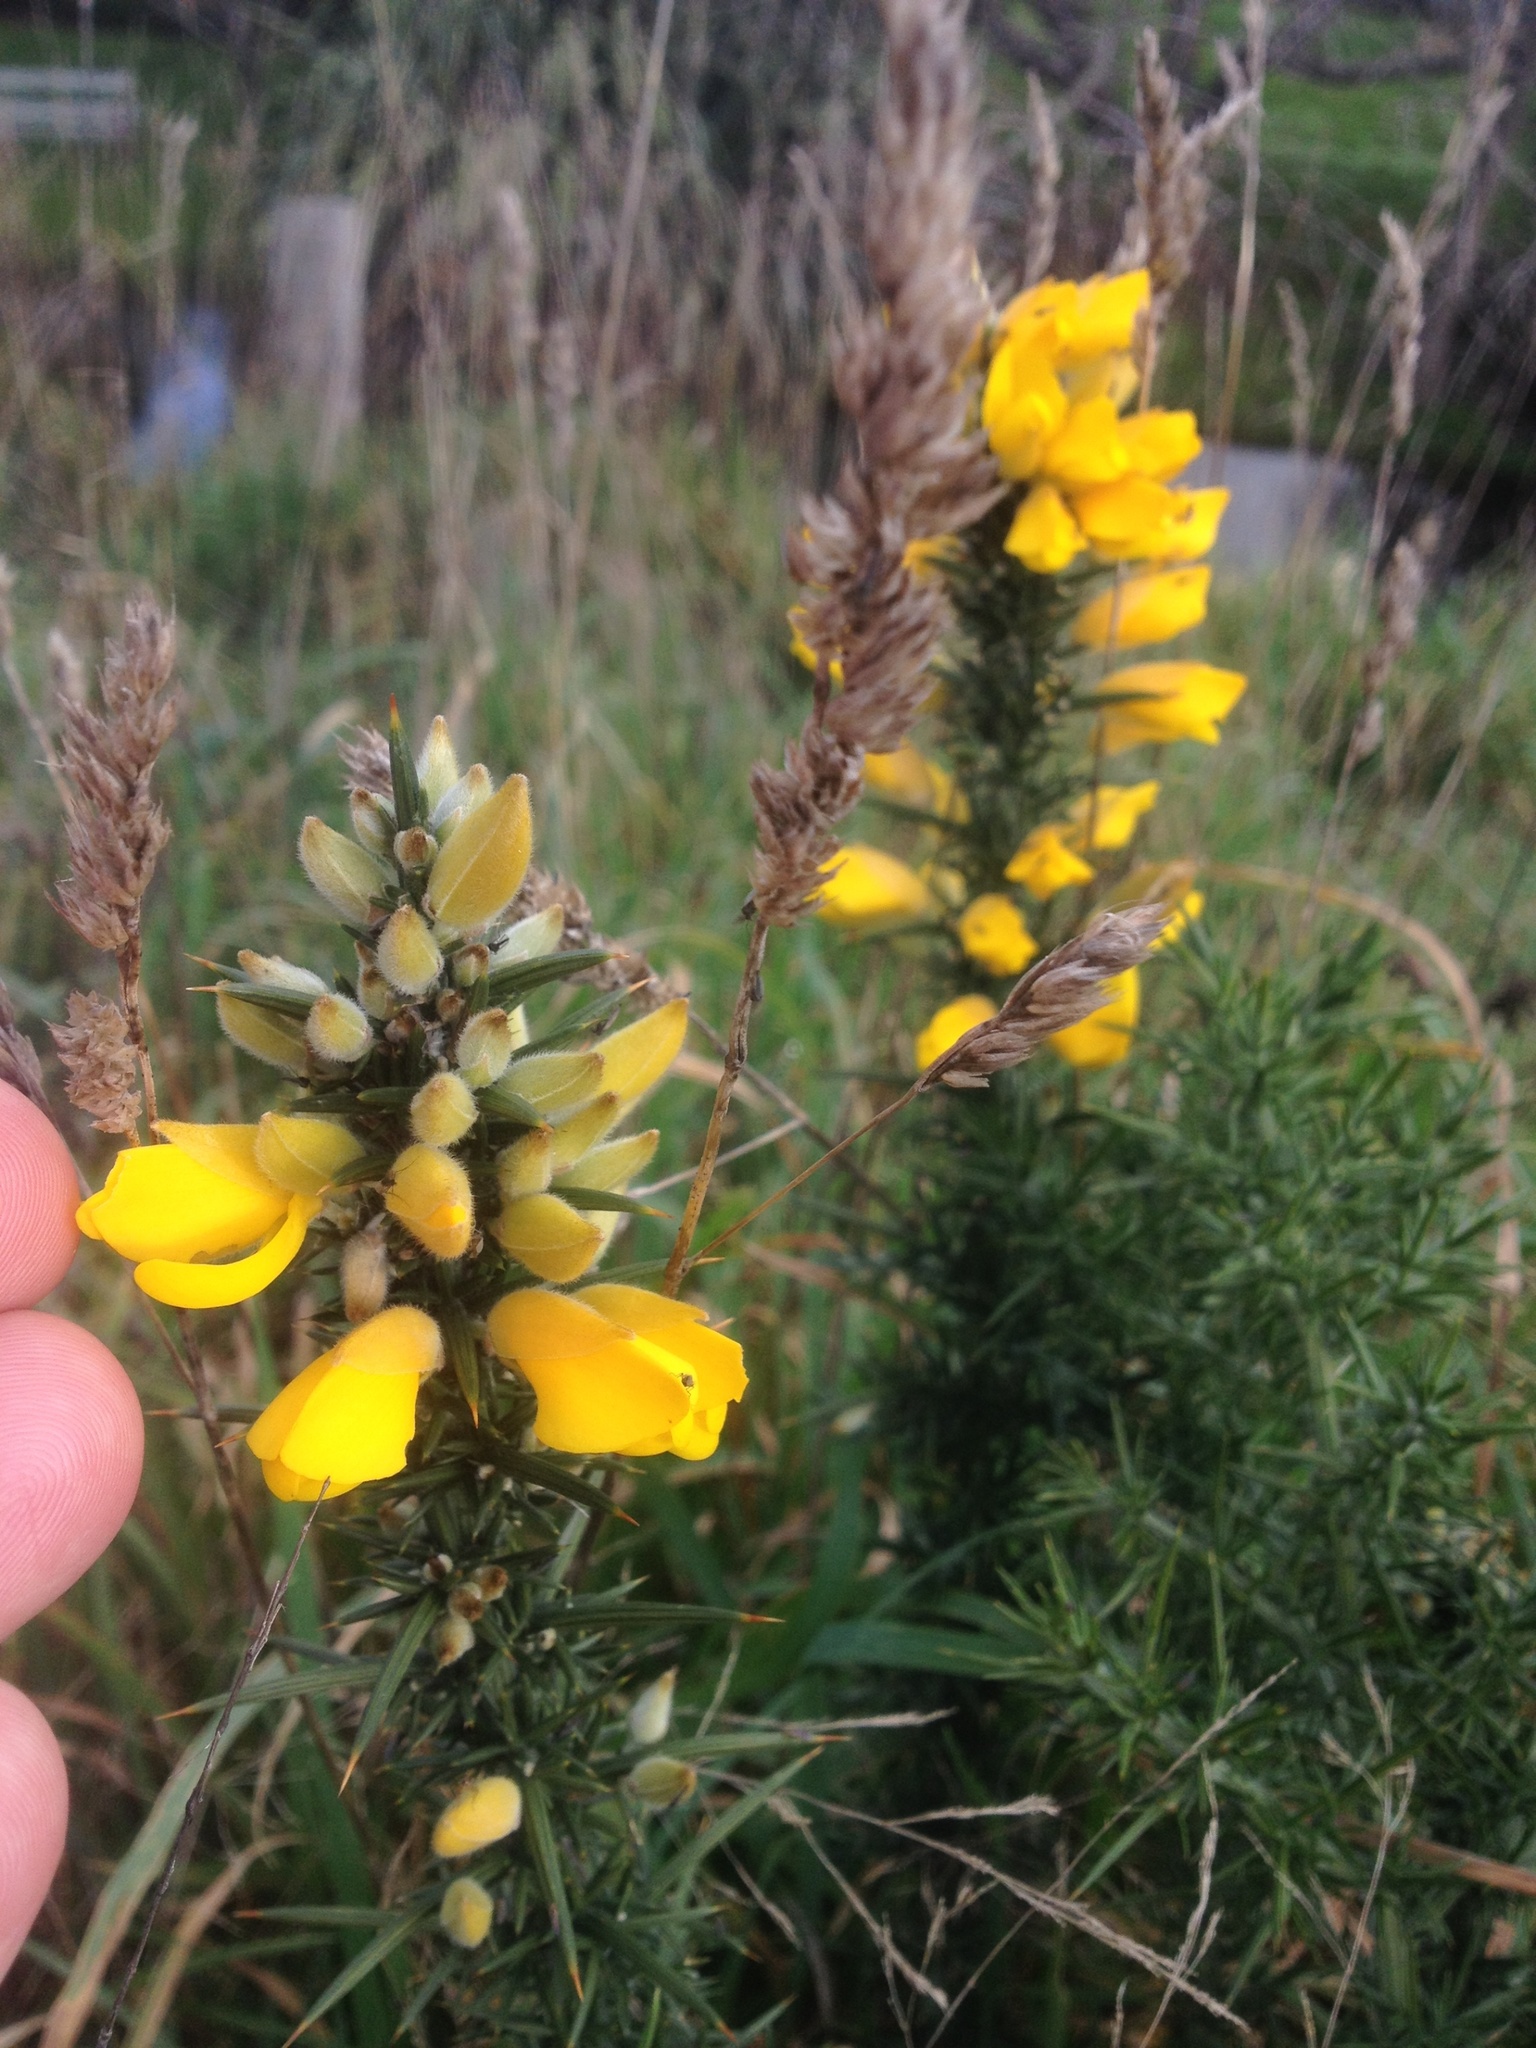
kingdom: Plantae
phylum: Tracheophyta
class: Magnoliopsida
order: Fabales
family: Fabaceae
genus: Ulex
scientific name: Ulex europaeus
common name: Common gorse
